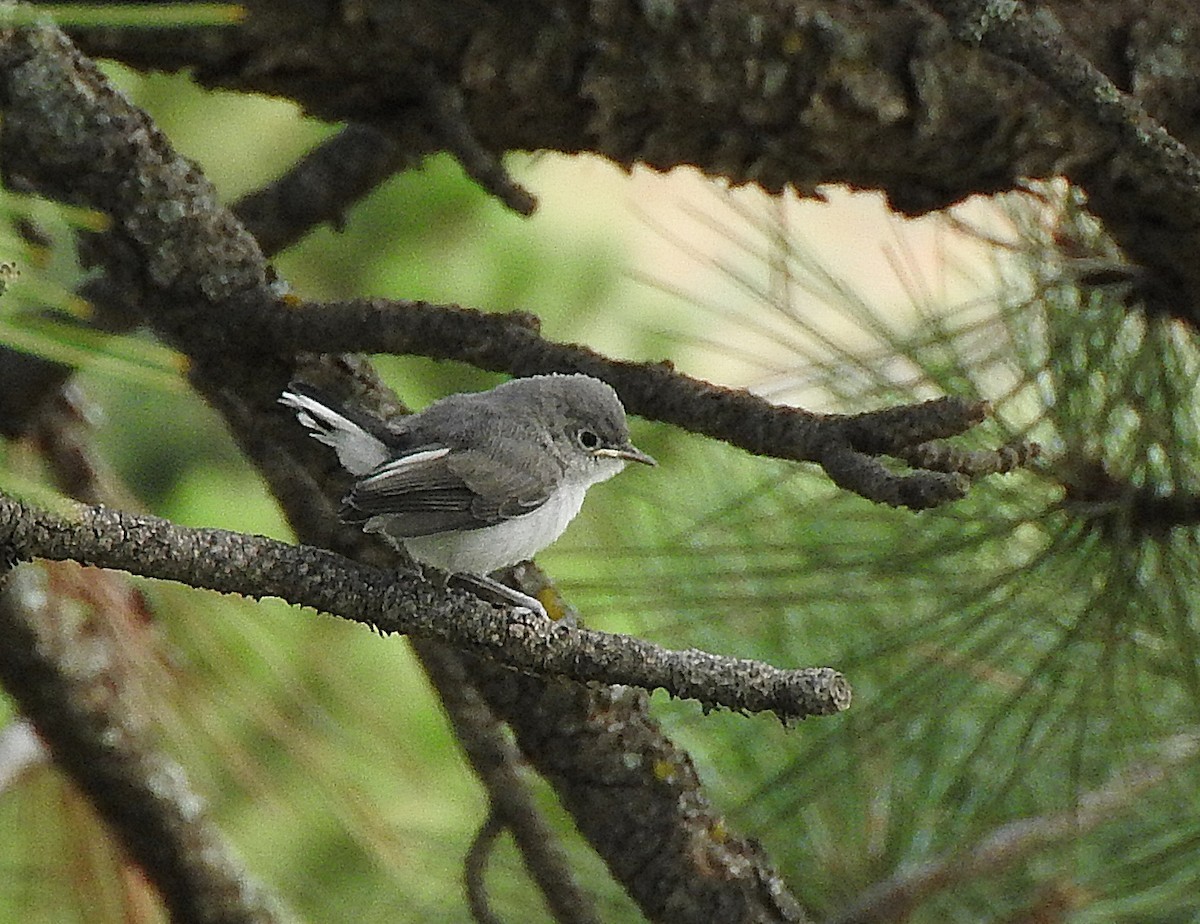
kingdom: Animalia
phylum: Chordata
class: Aves
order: Passeriformes
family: Polioptilidae
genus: Polioptila
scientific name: Polioptila caerulea
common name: Blue-gray gnatcatcher
